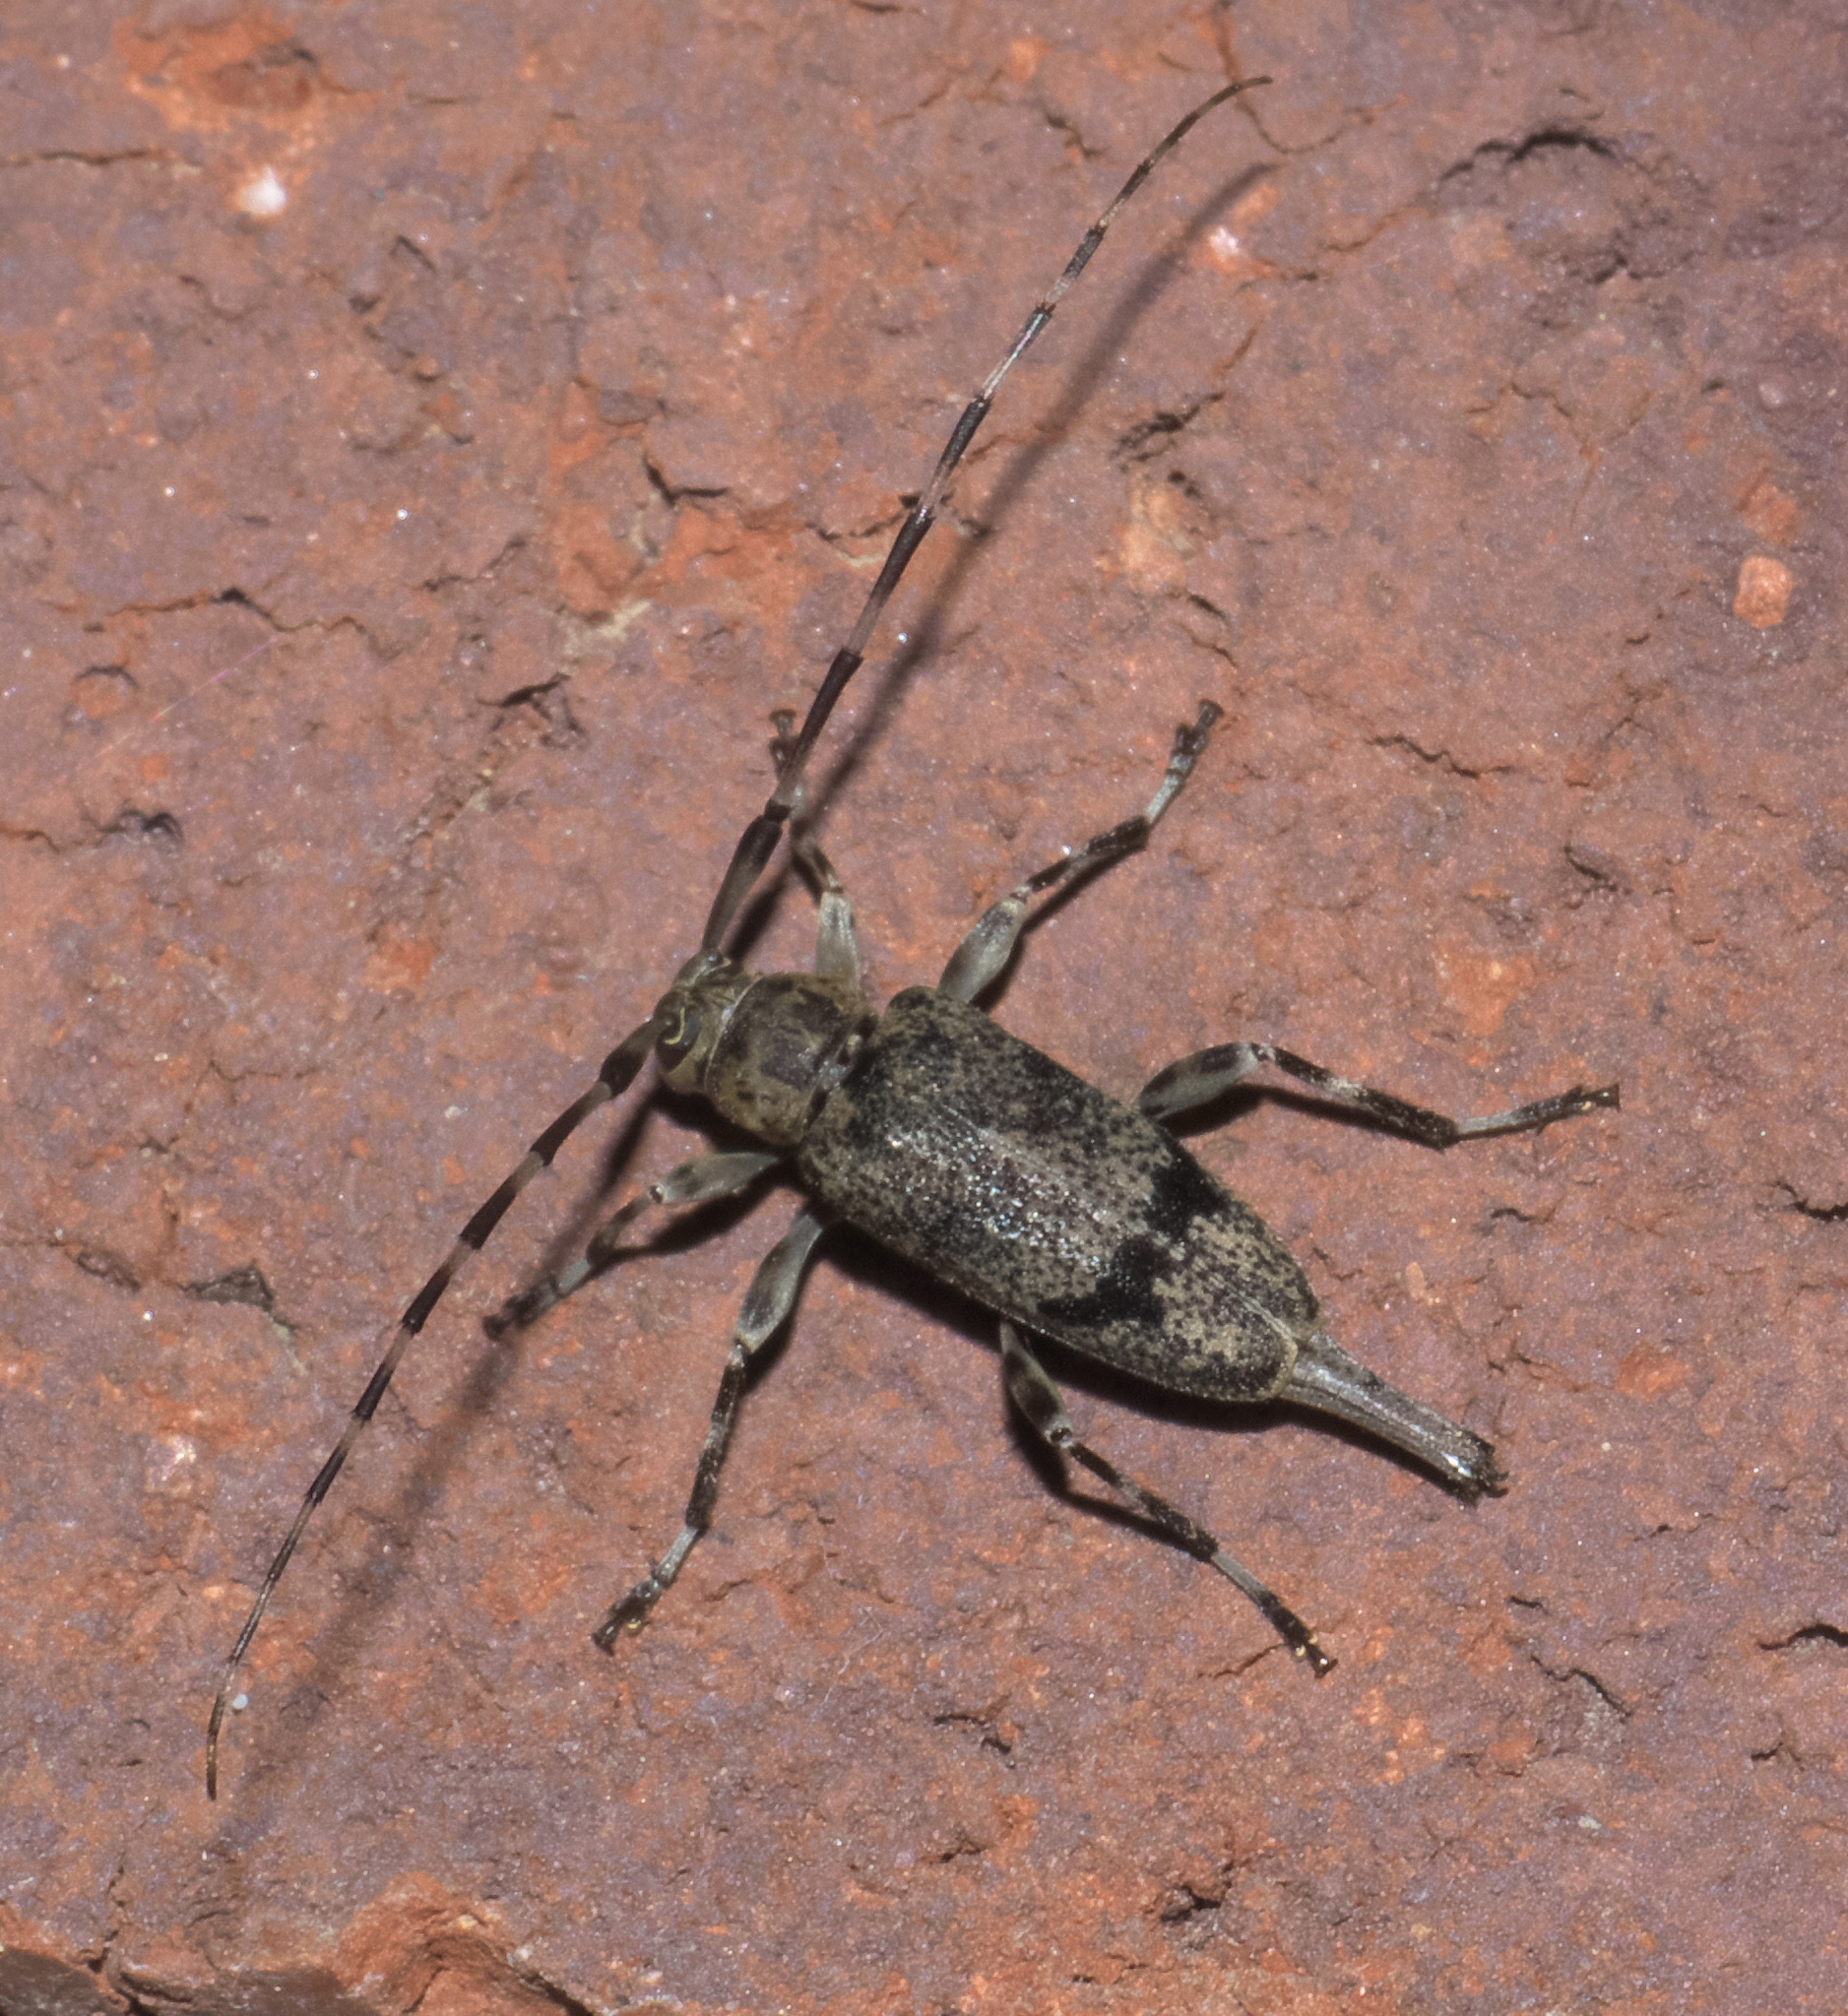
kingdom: Animalia
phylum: Arthropoda
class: Insecta
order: Coleoptera
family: Cerambycidae
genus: Graphisurus
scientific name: Graphisurus despectus
